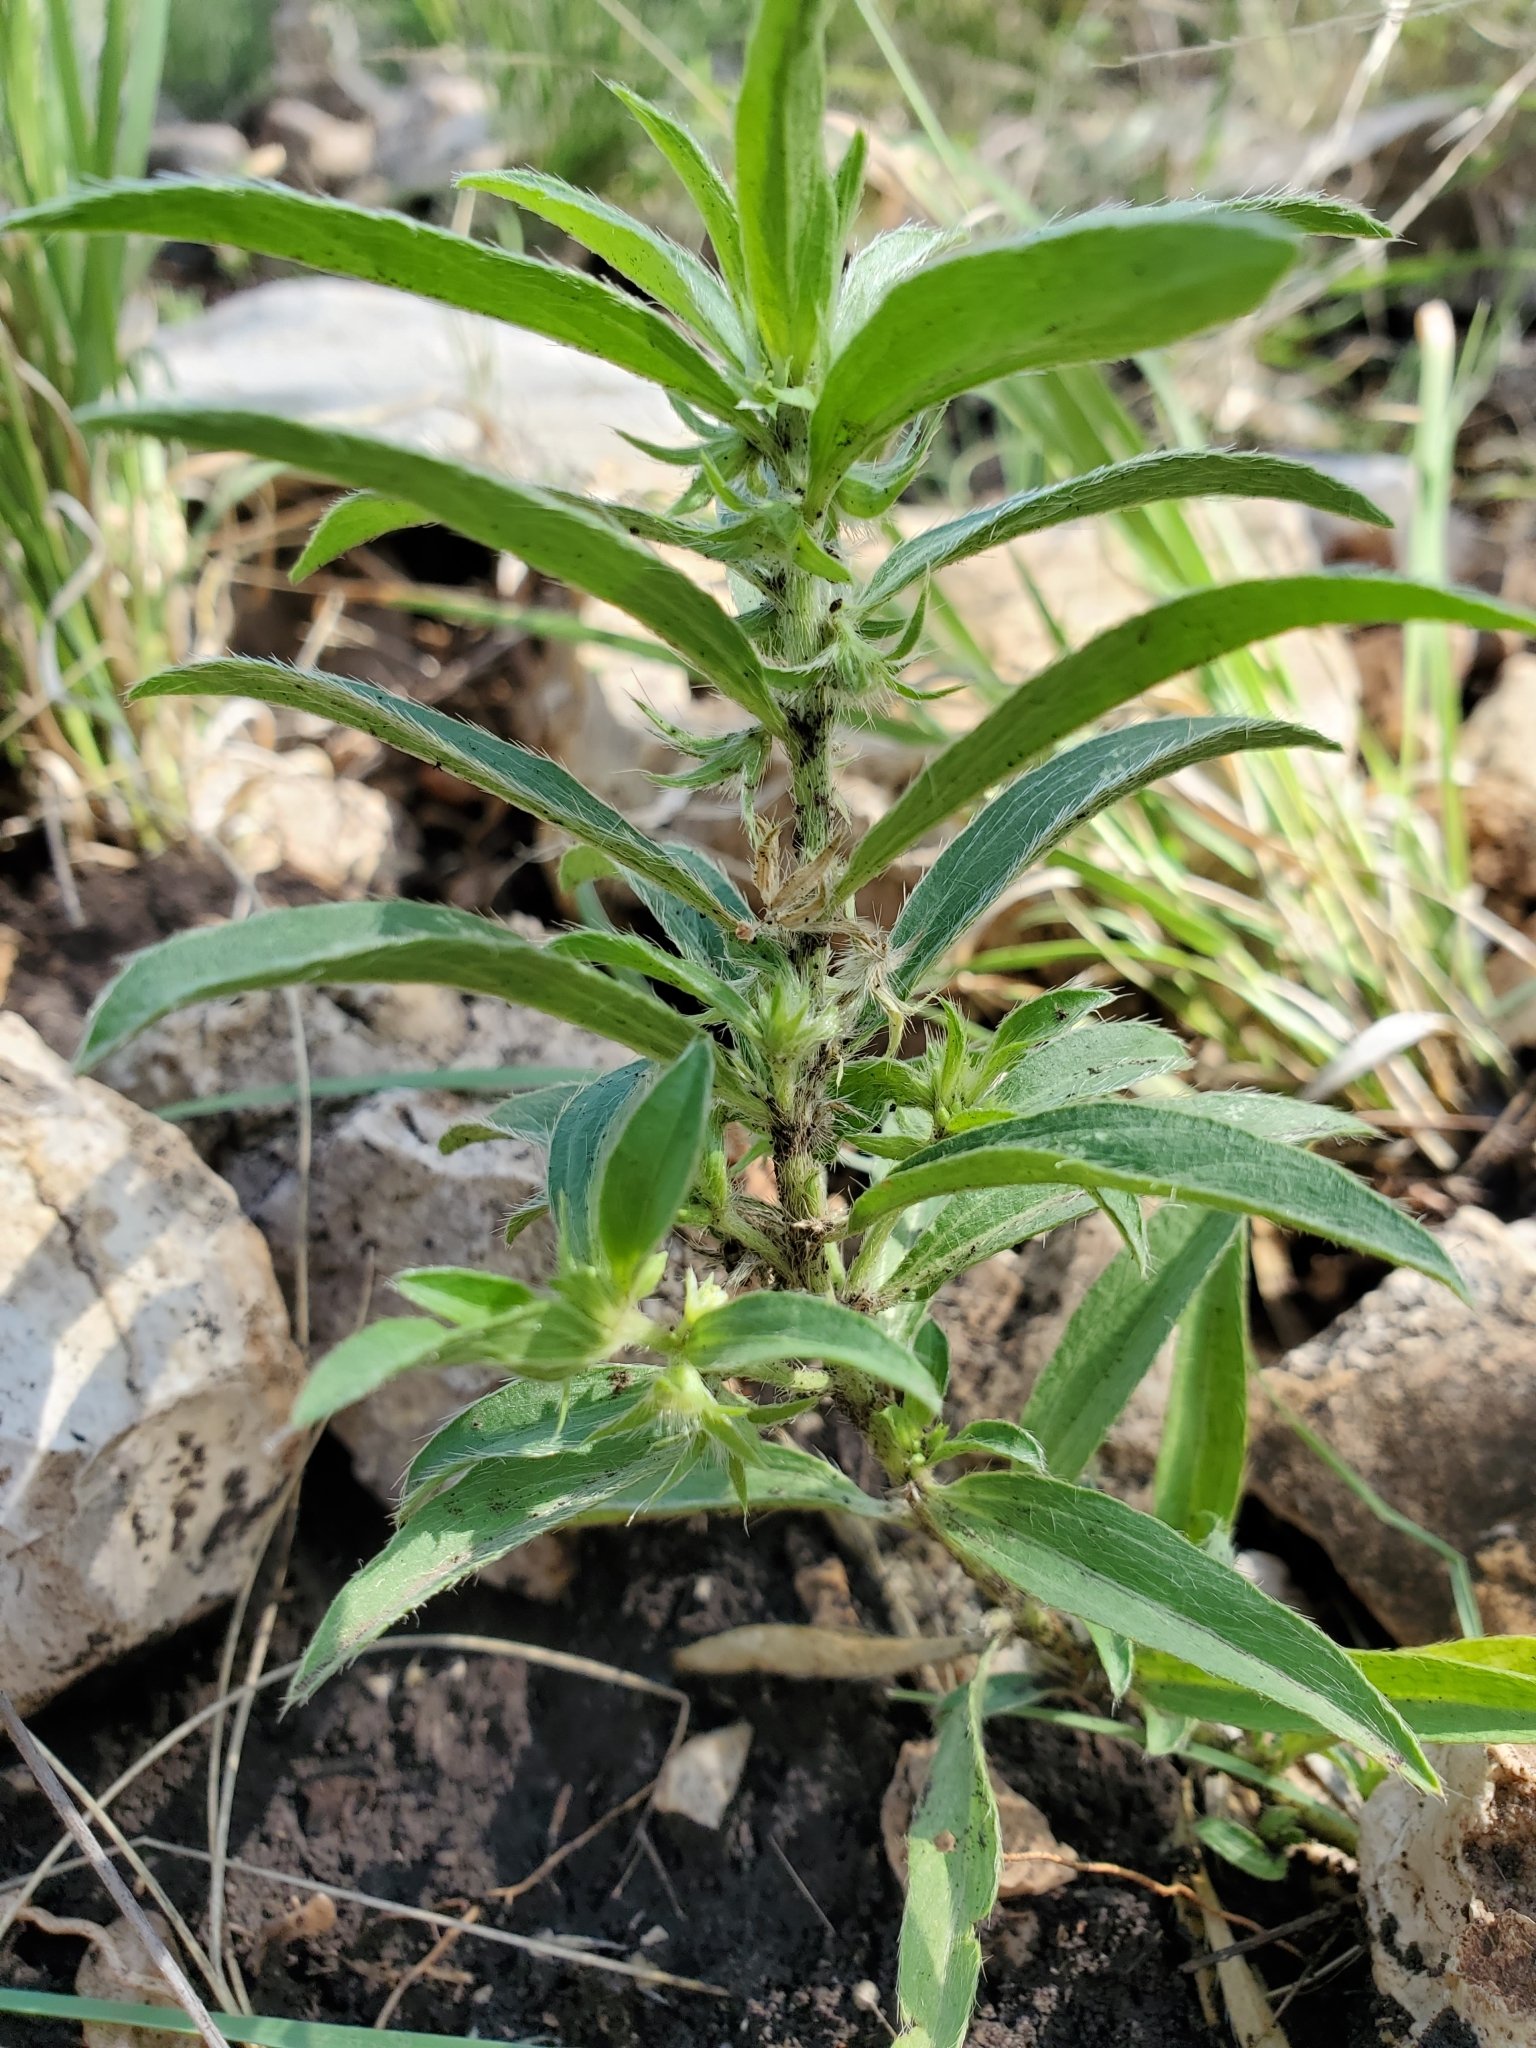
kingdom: Plantae
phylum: Tracheophyta
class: Magnoliopsida
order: Malpighiales
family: Euphorbiaceae
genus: Ditaxis
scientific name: Ditaxis serrata
